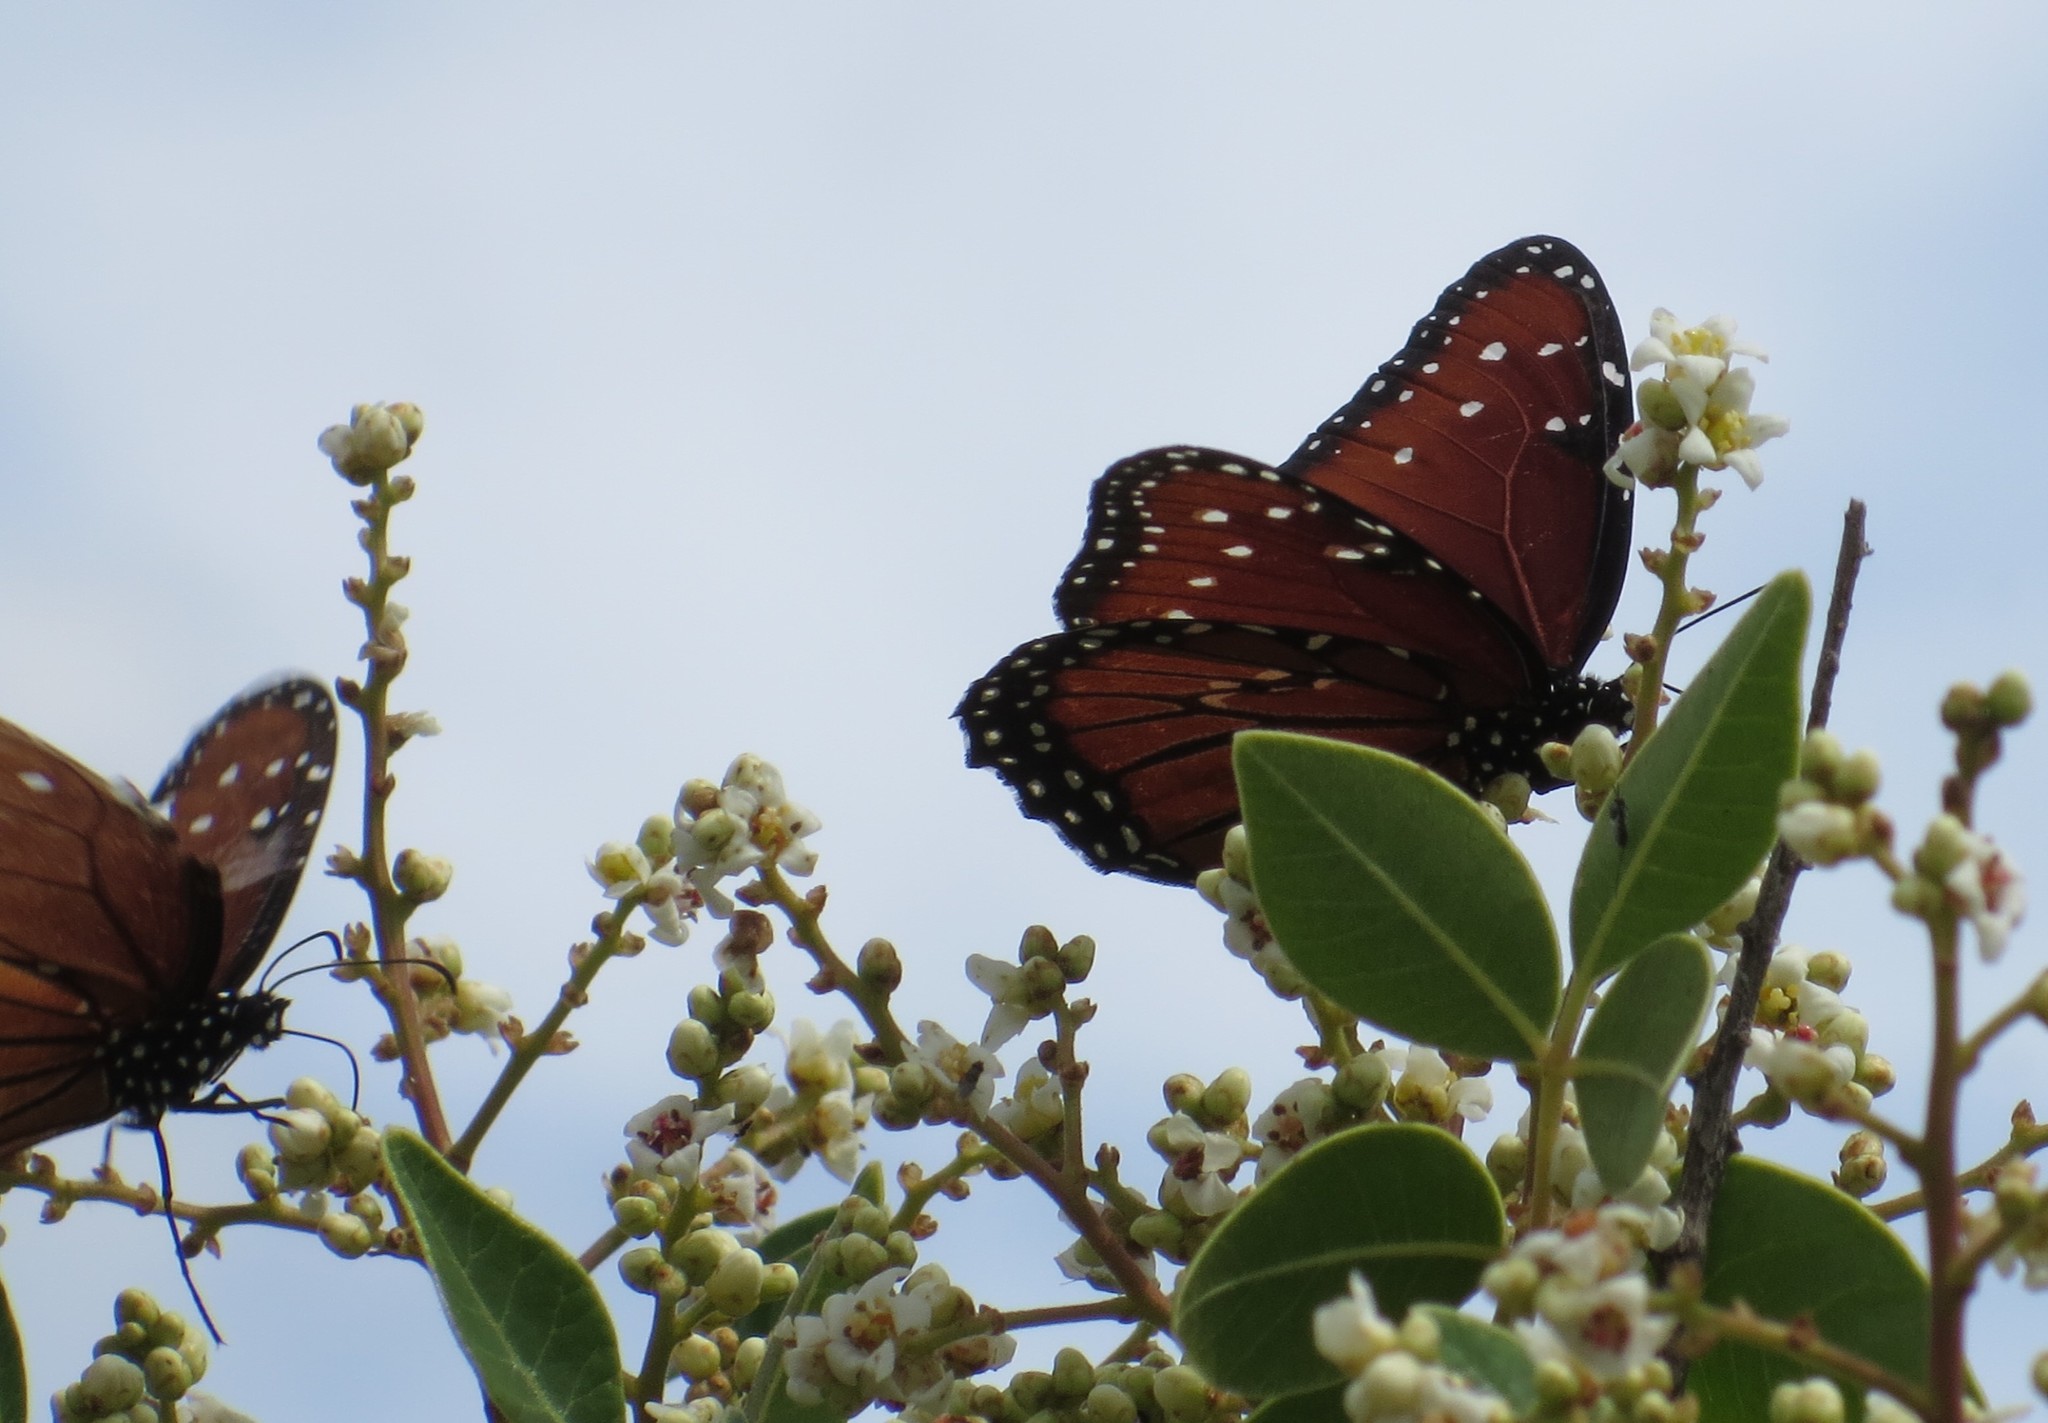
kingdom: Animalia
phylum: Arthropoda
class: Insecta
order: Lepidoptera
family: Nymphalidae
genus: Danaus
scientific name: Danaus gilippus
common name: Queen
